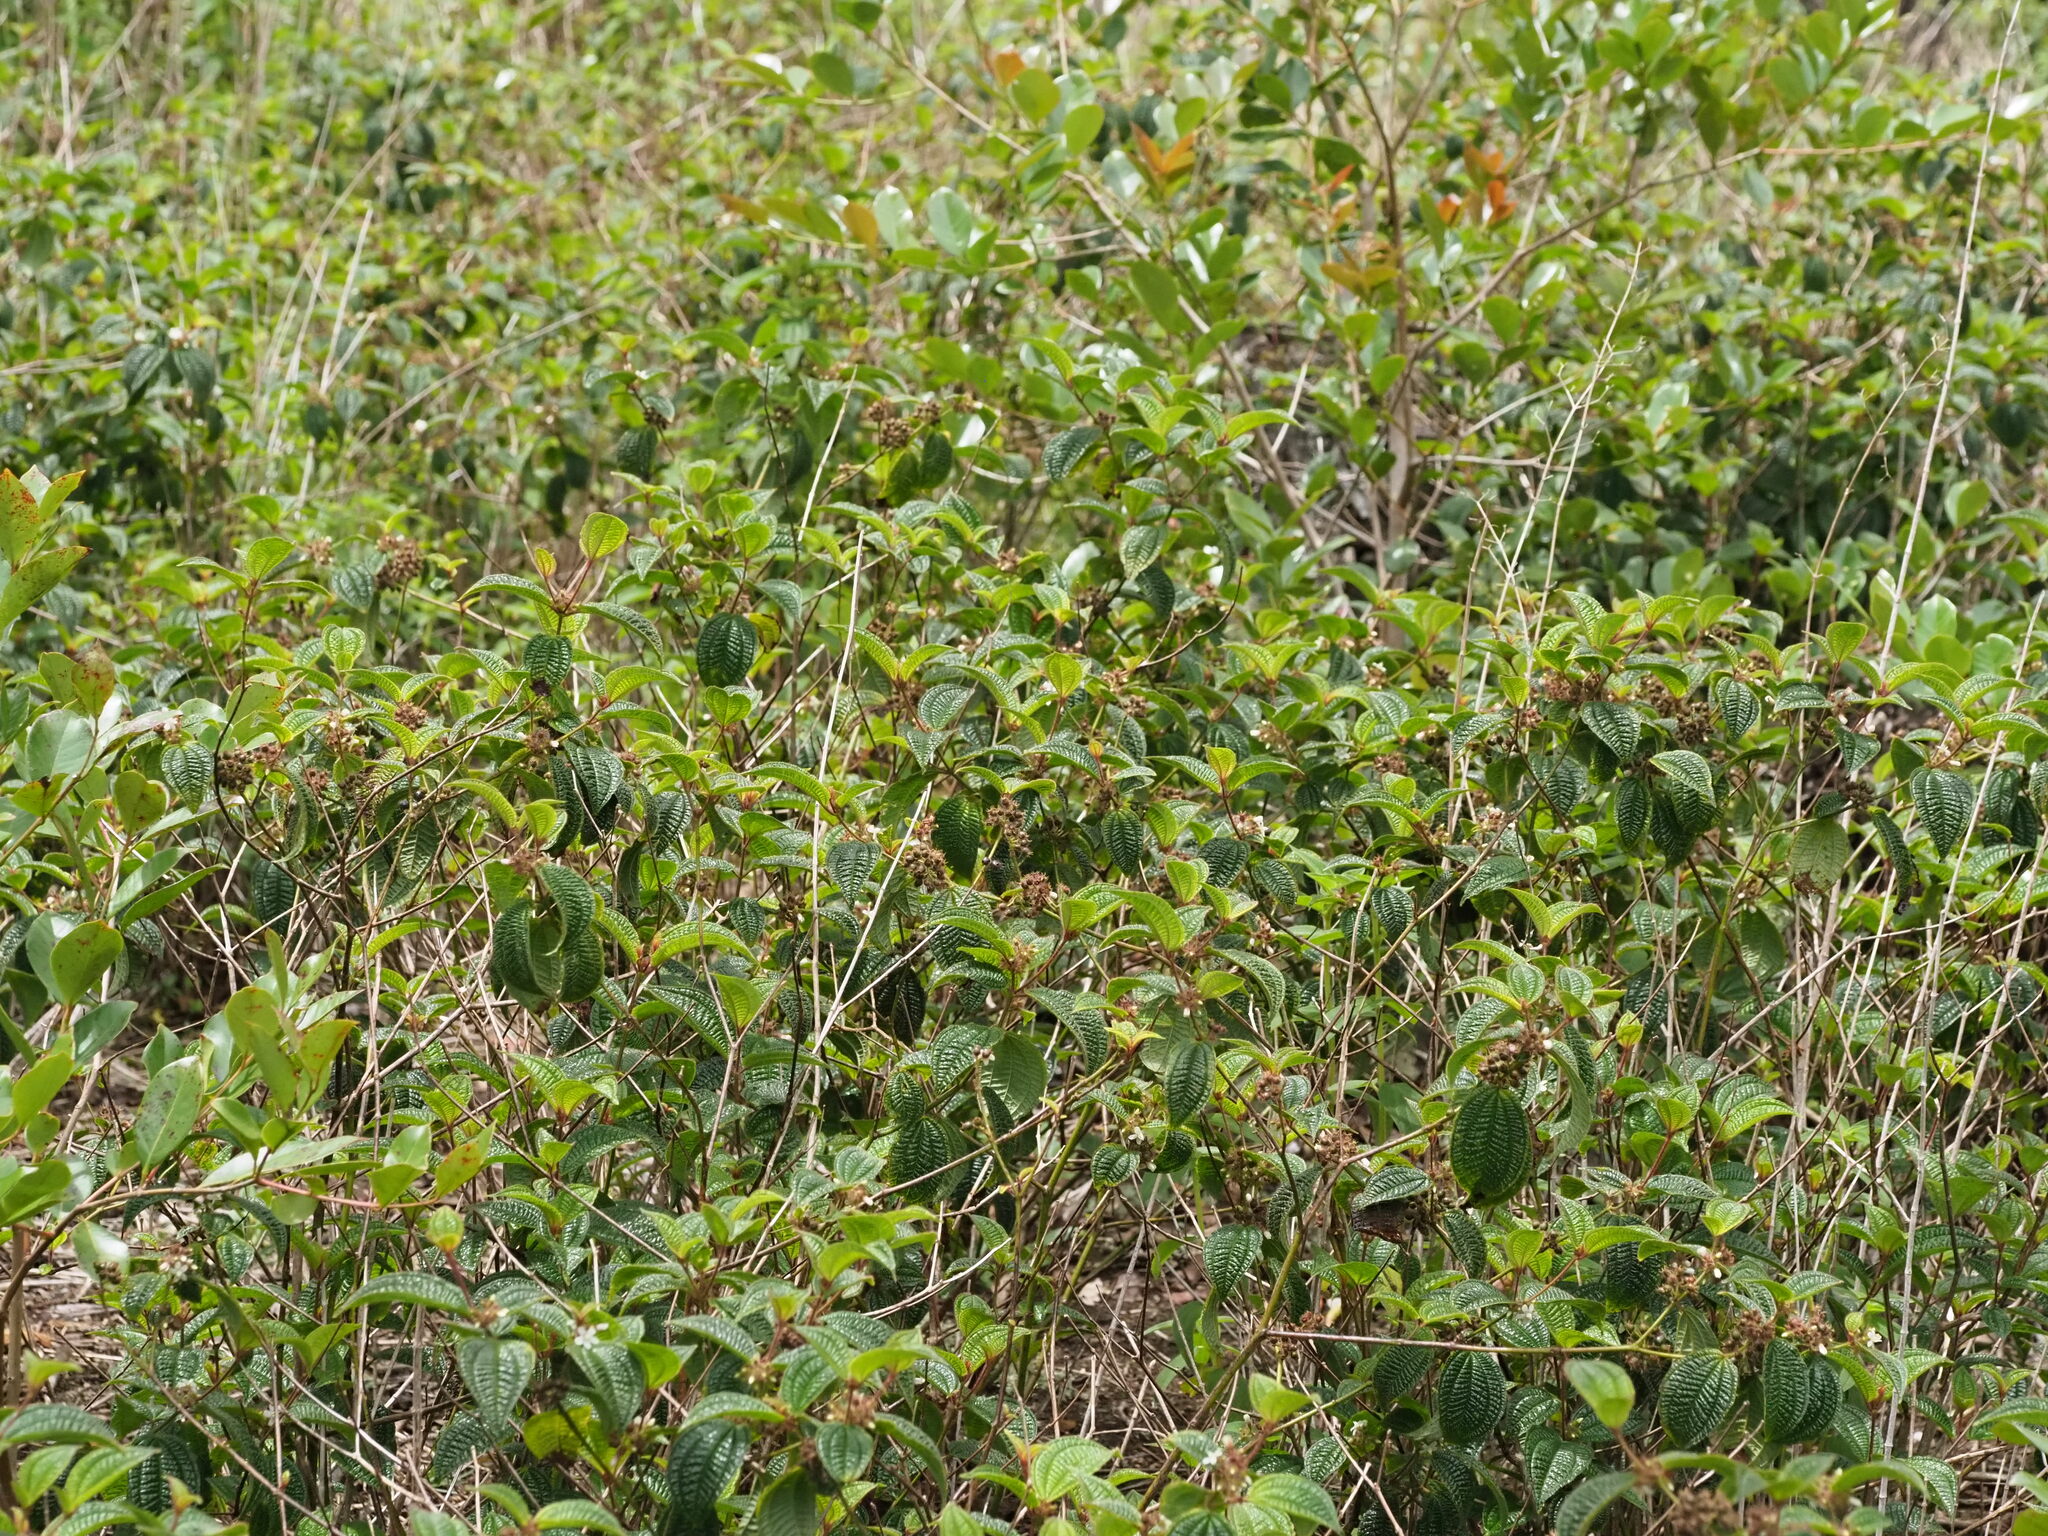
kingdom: Plantae
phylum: Tracheophyta
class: Magnoliopsida
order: Myrtales
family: Melastomataceae
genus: Miconia
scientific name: Miconia crenata
